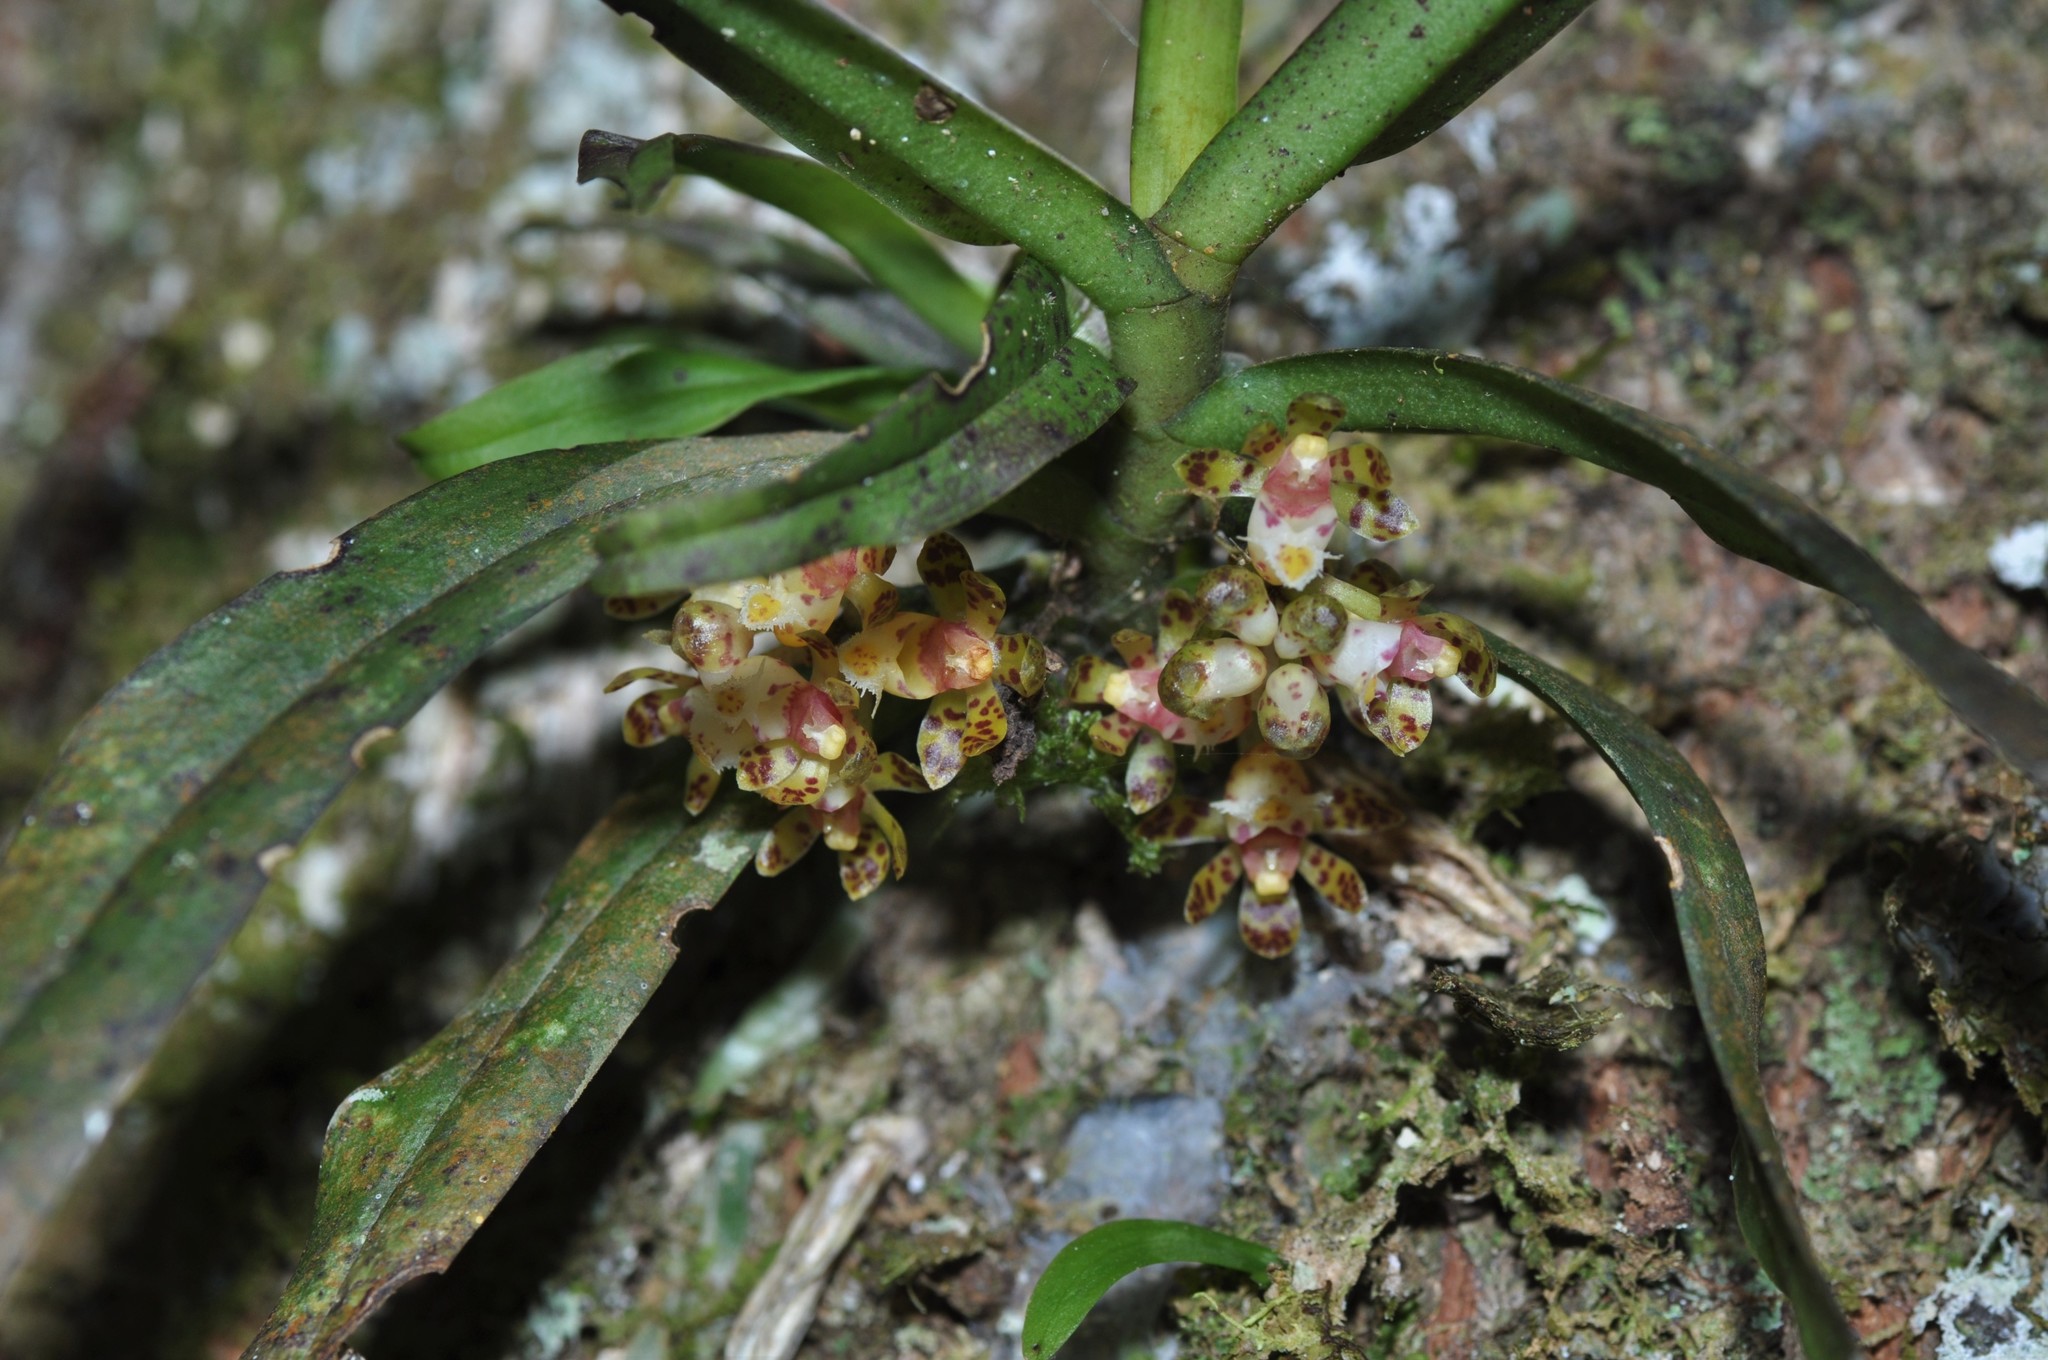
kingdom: Plantae
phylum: Tracheophyta
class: Liliopsida
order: Asparagales
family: Orchidaceae
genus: Gastrochilus
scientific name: Gastrochilus sororius
